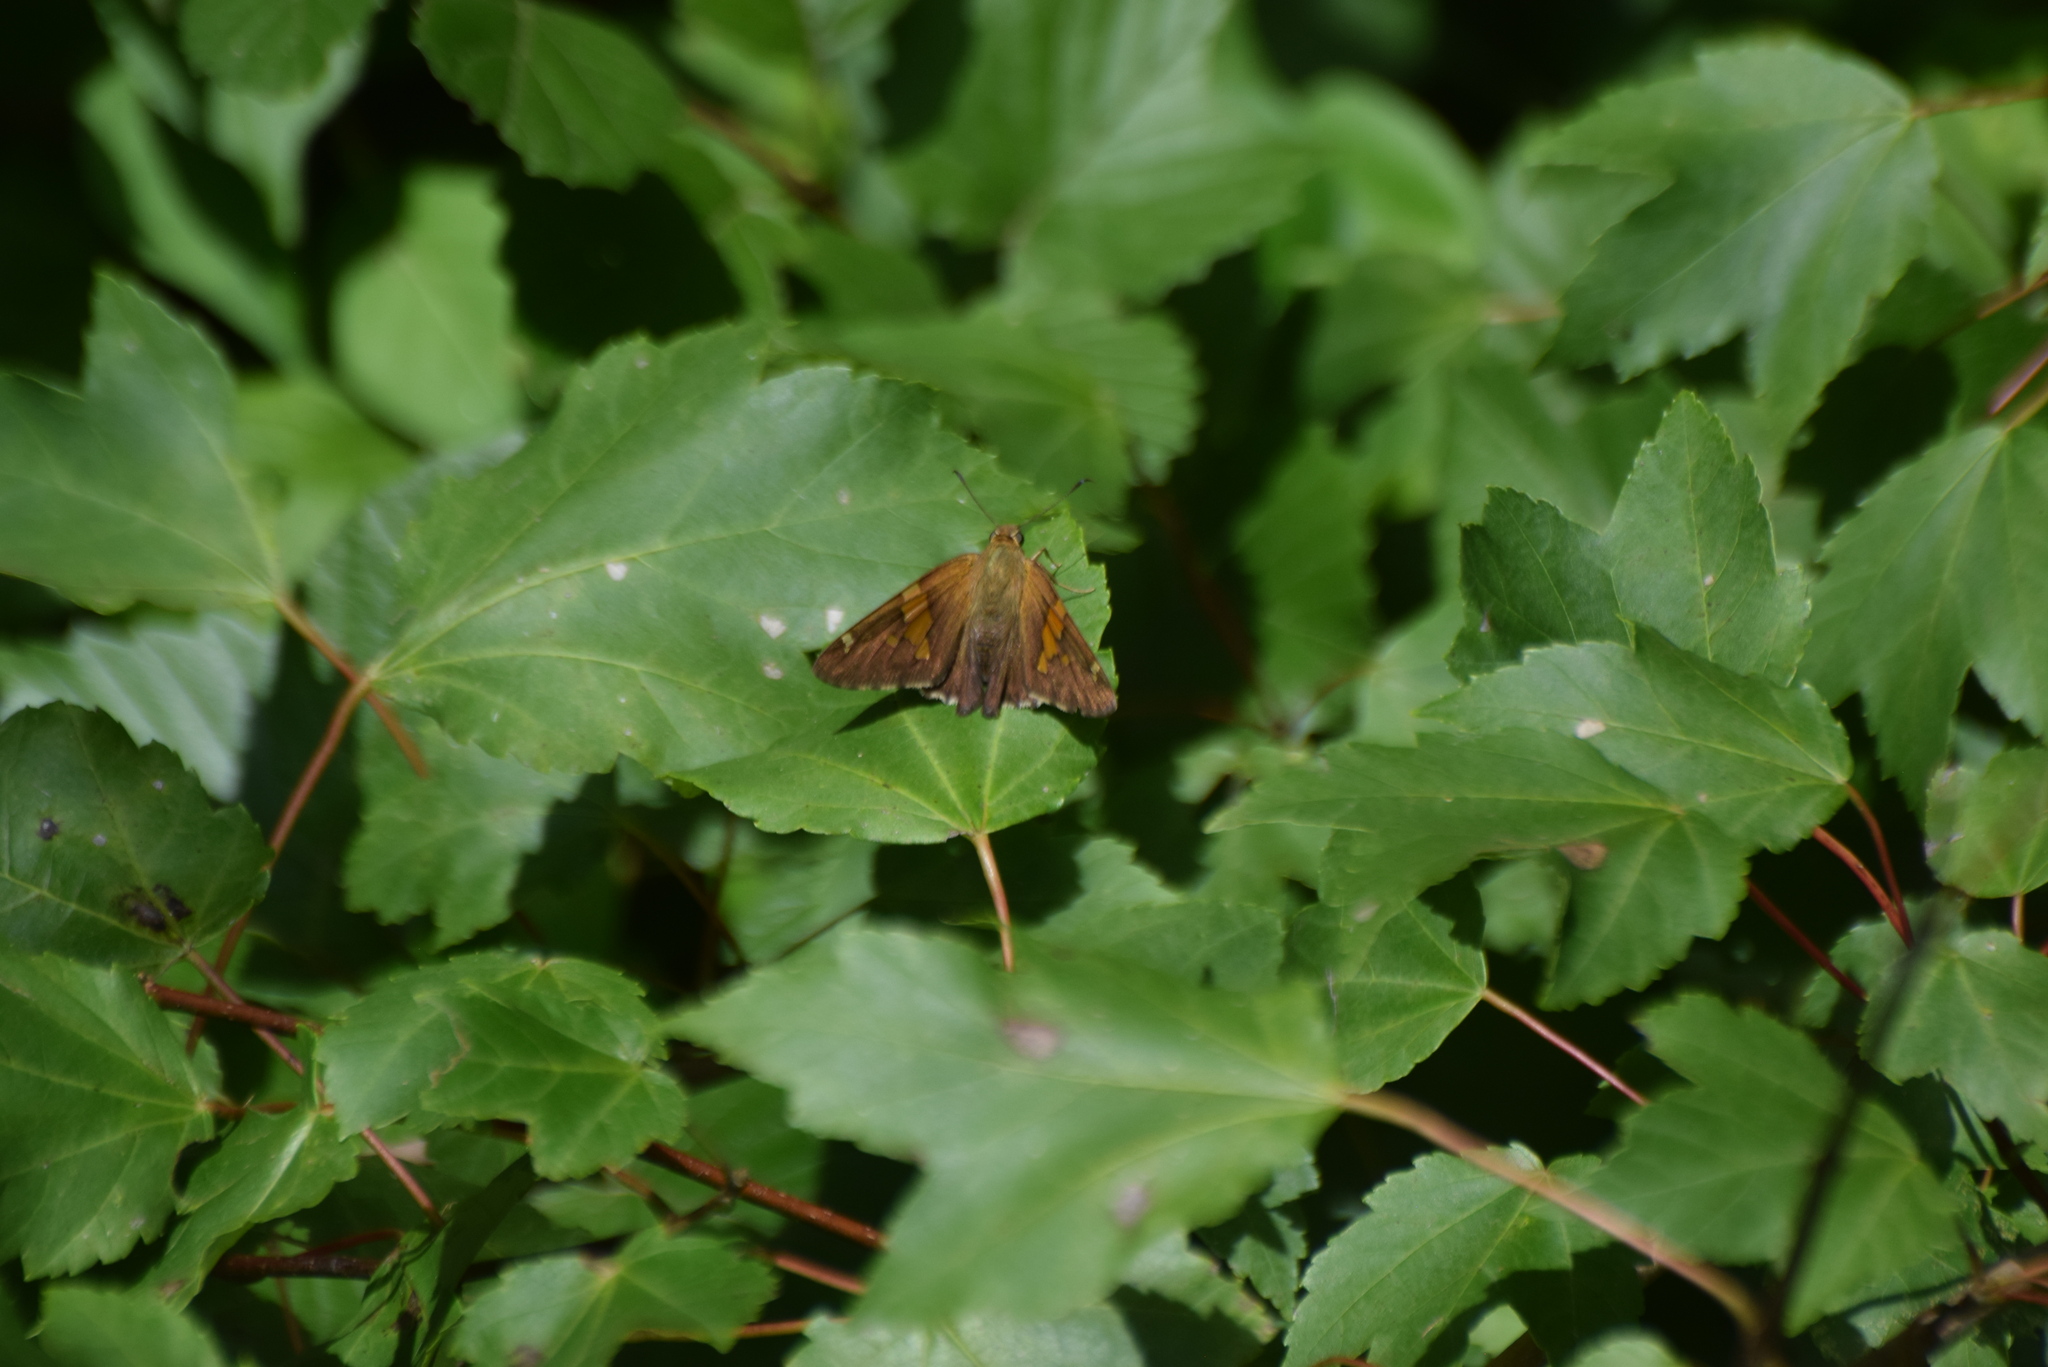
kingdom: Animalia
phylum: Arthropoda
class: Insecta
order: Lepidoptera
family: Hesperiidae
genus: Epargyreus
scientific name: Epargyreus clarus
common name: Silver-spotted skipper
